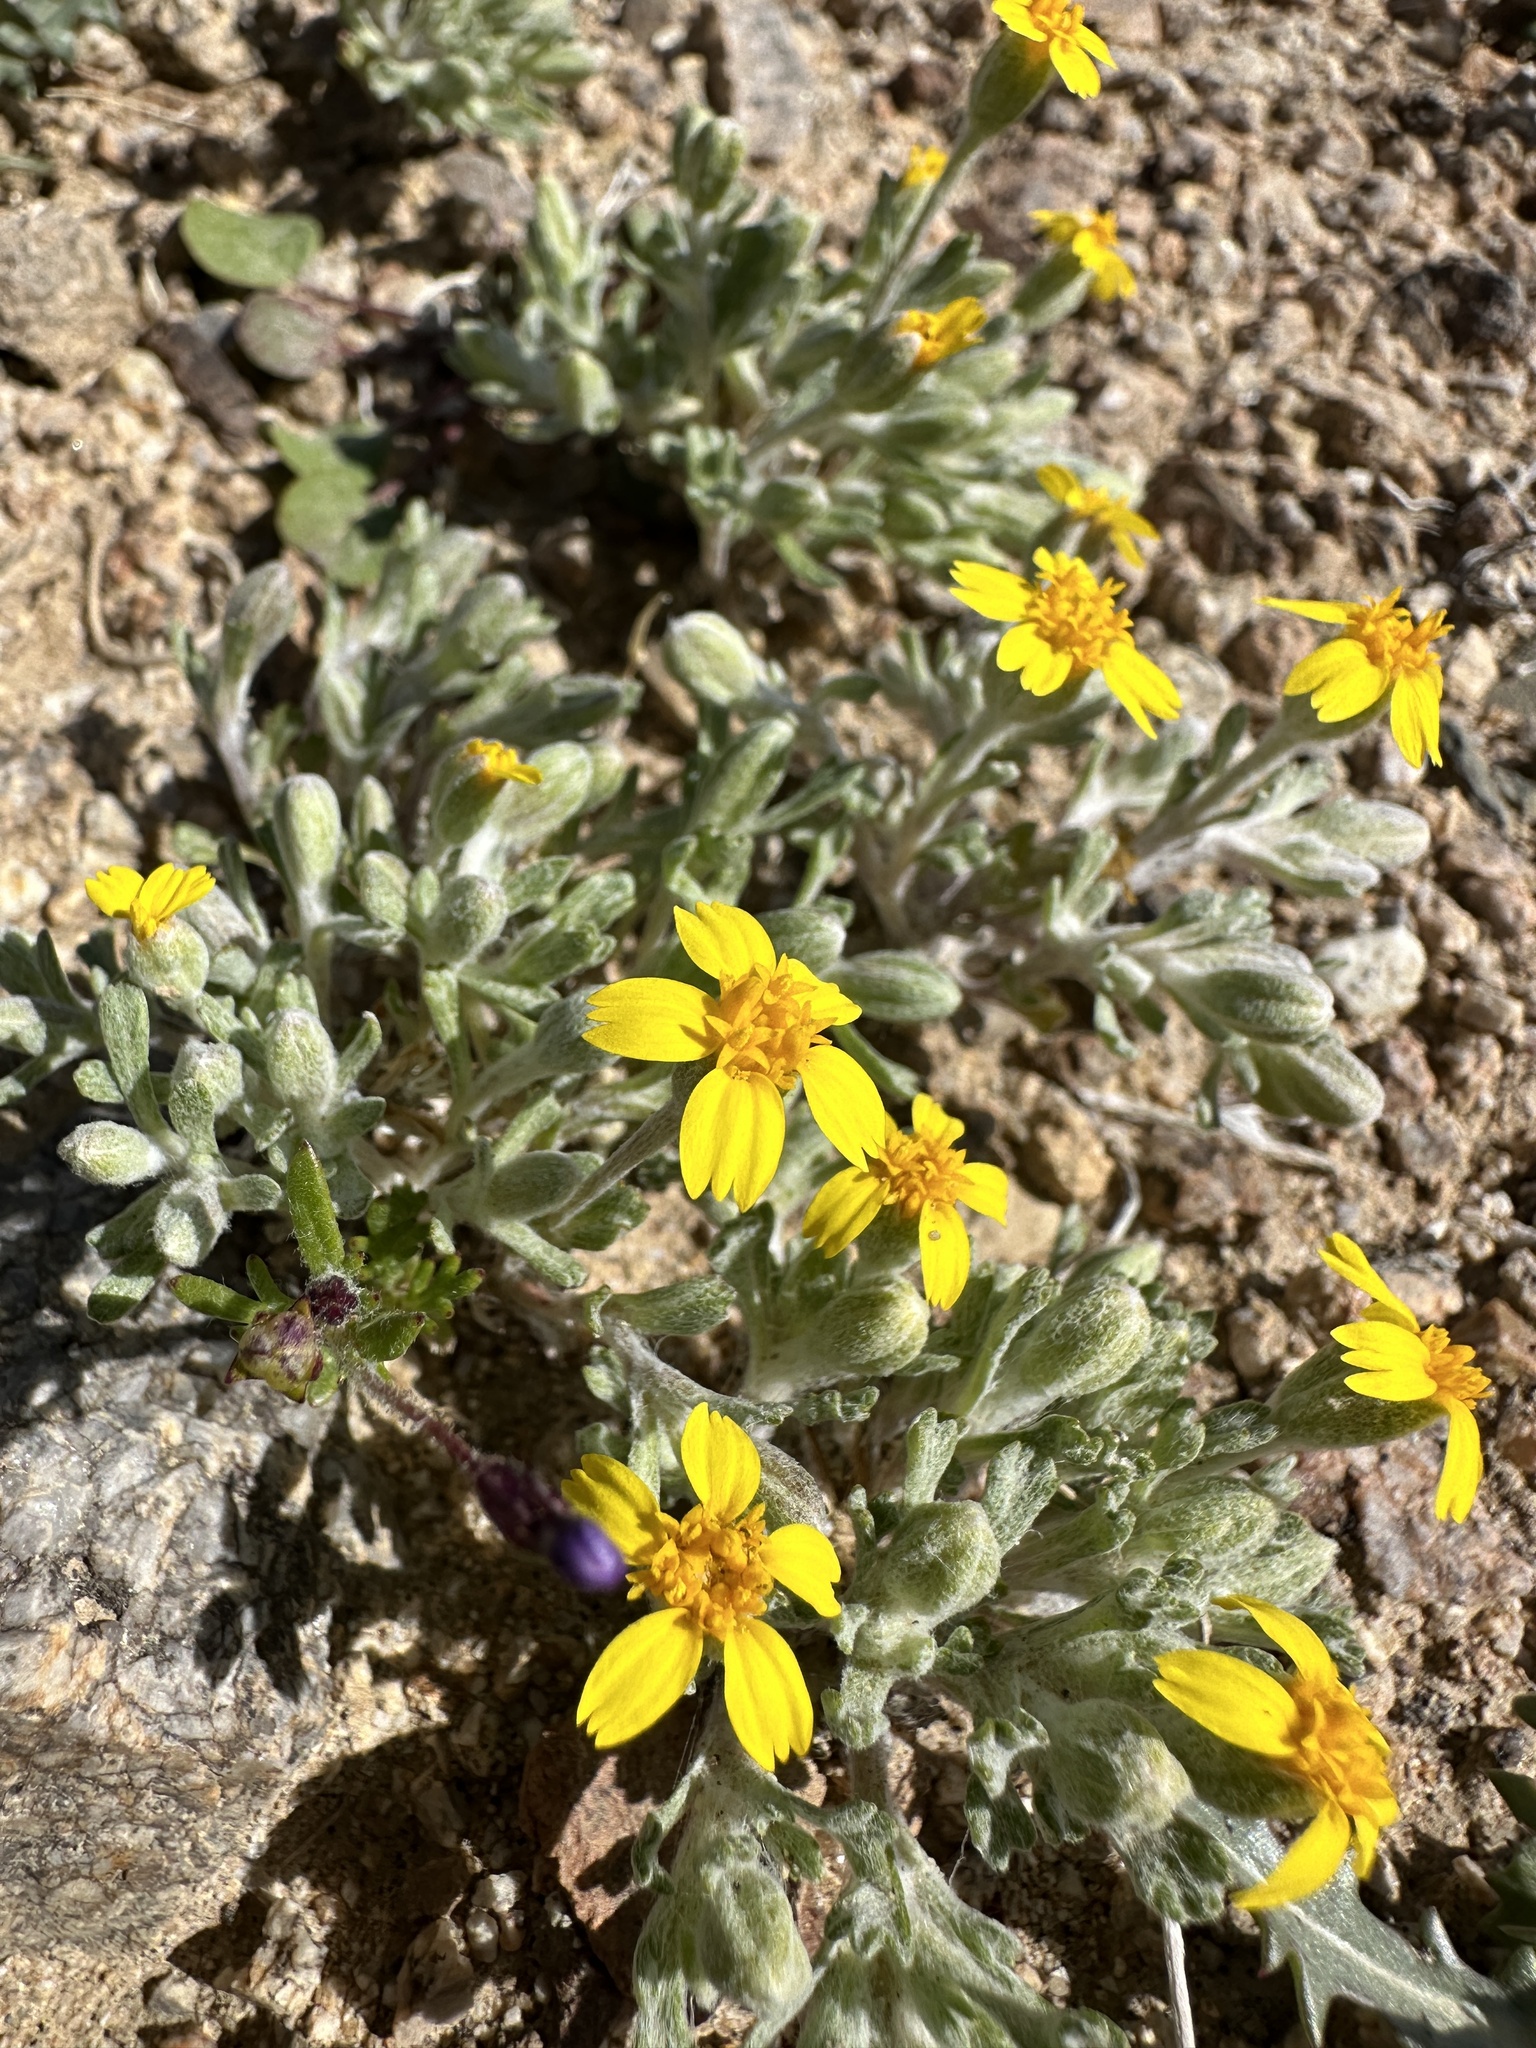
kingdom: Plantae
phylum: Tracheophyta
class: Magnoliopsida
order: Asterales
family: Asteraceae
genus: Syntrichopappus
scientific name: Syntrichopappus fremontii
